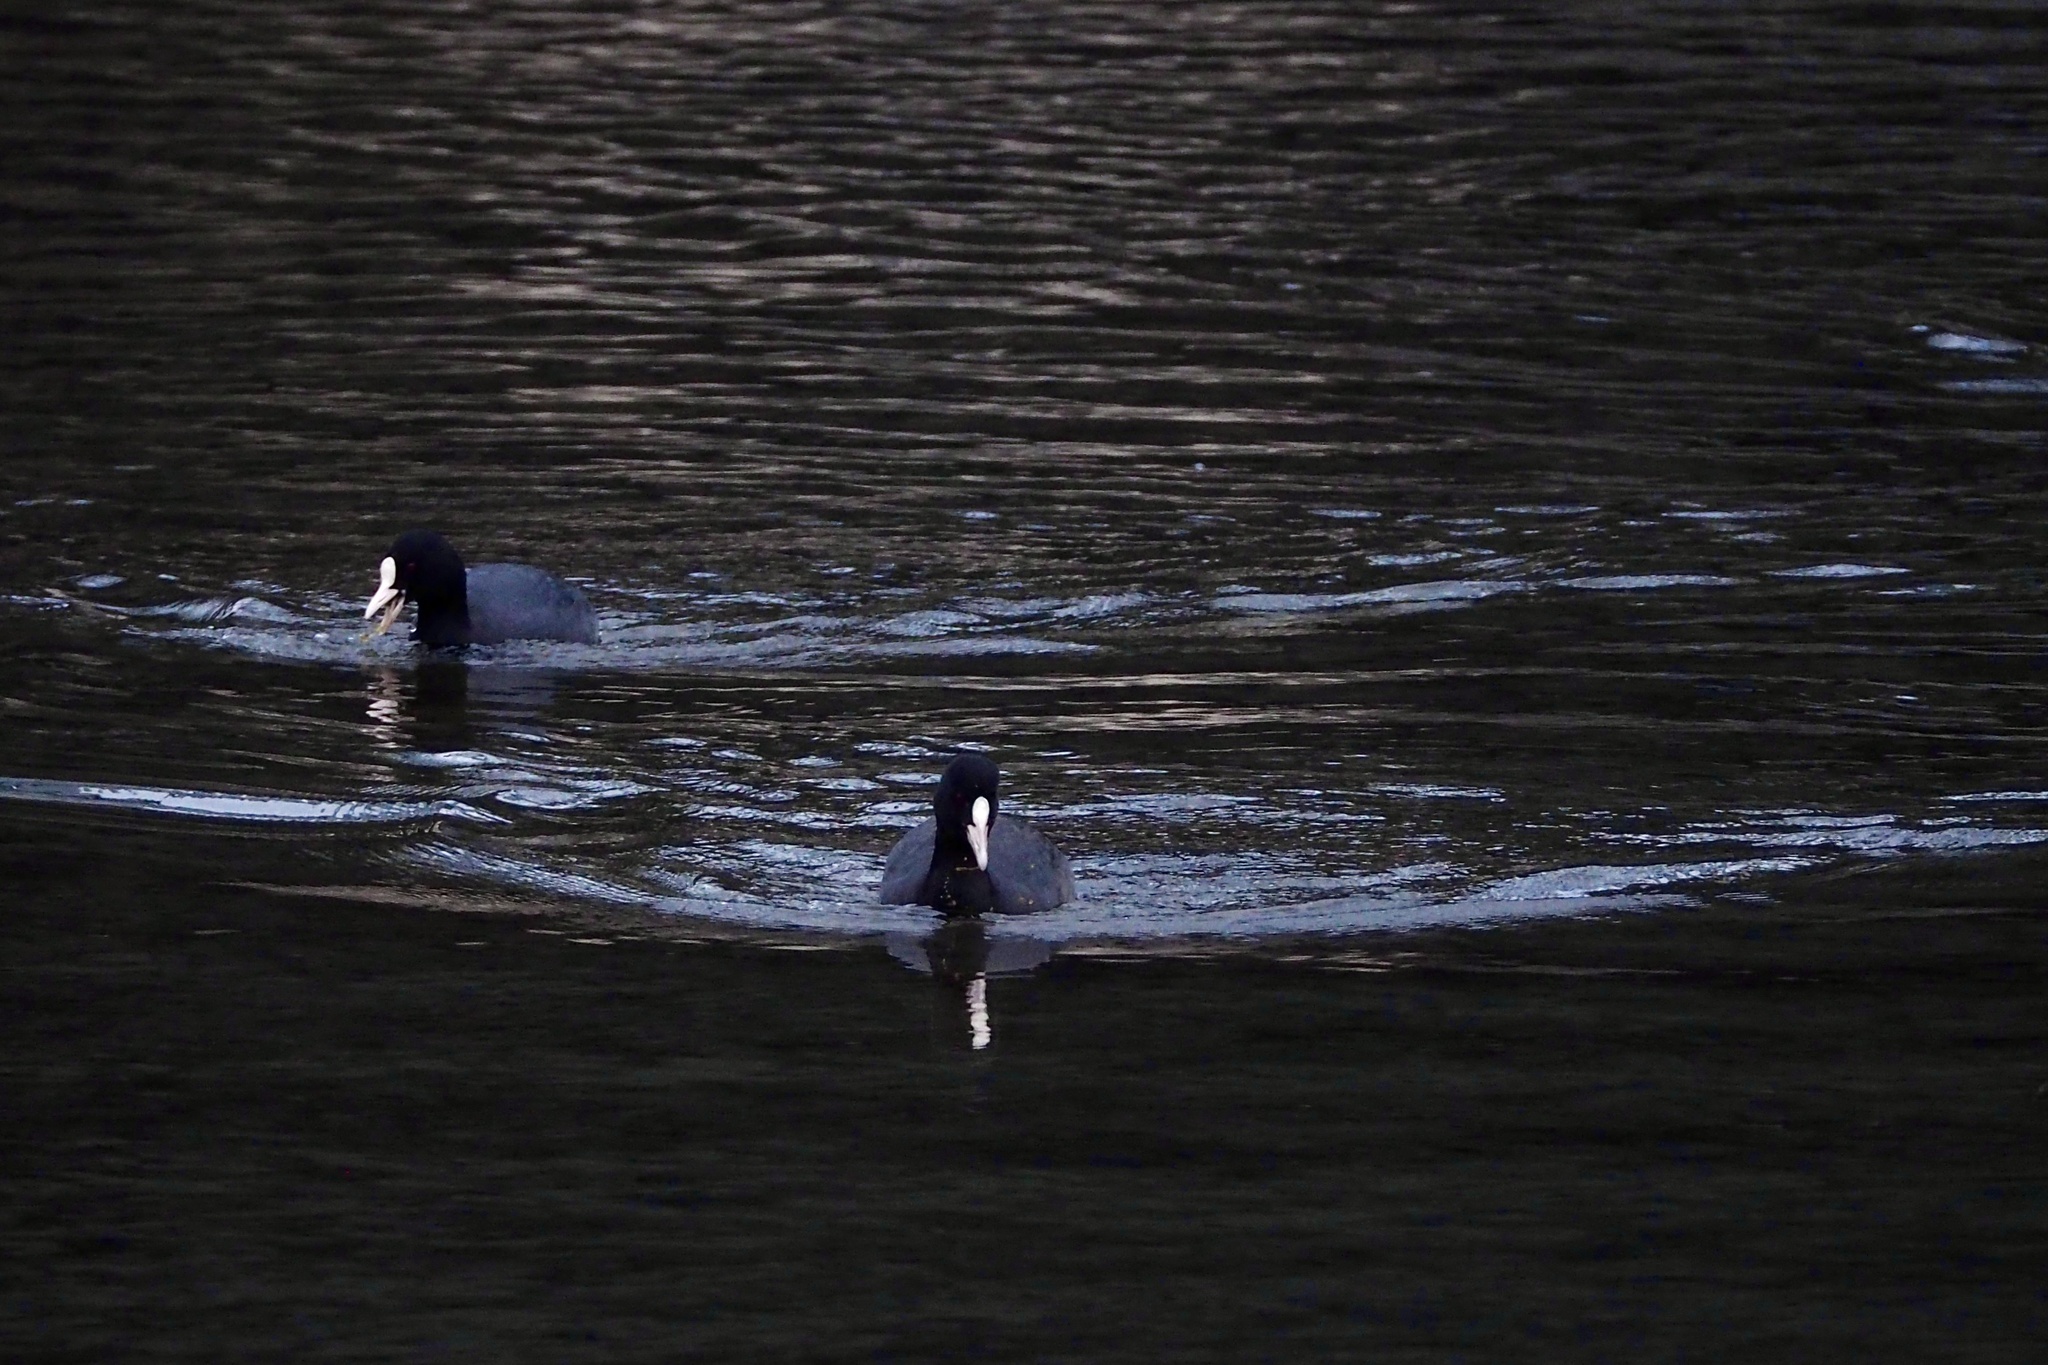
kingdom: Animalia
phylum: Chordata
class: Aves
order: Gruiformes
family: Rallidae
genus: Fulica
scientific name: Fulica atra
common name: Eurasian coot
